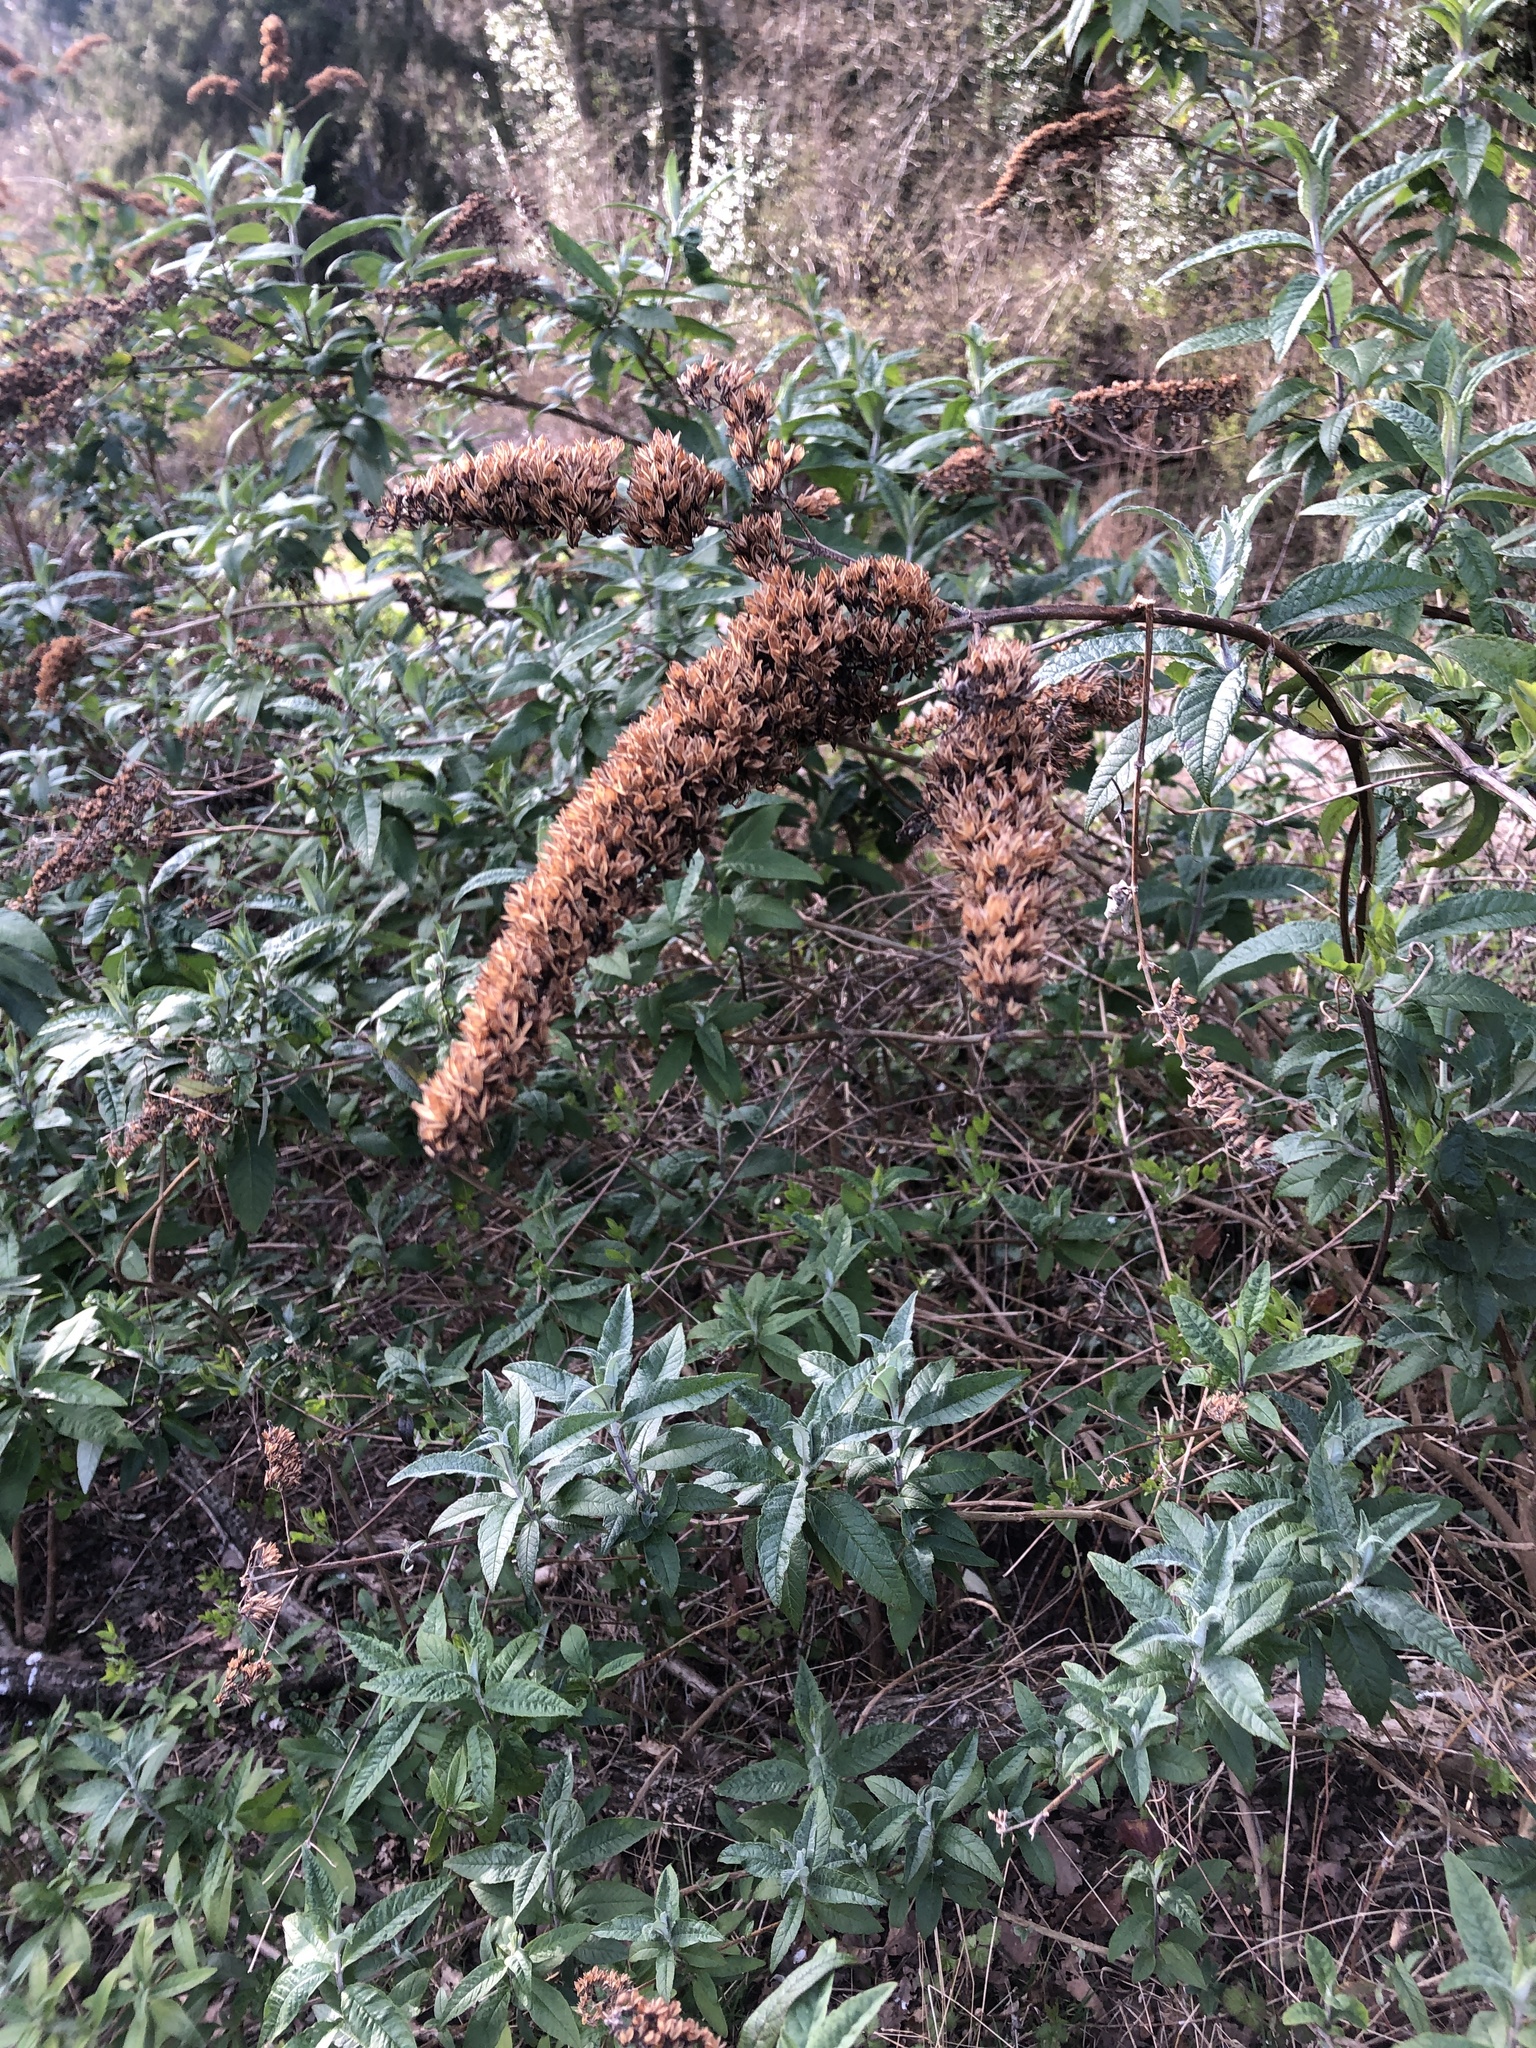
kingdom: Plantae
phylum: Tracheophyta
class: Magnoliopsida
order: Lamiales
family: Scrophulariaceae
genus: Buddleja
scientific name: Buddleja davidii
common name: Butterfly-bush
